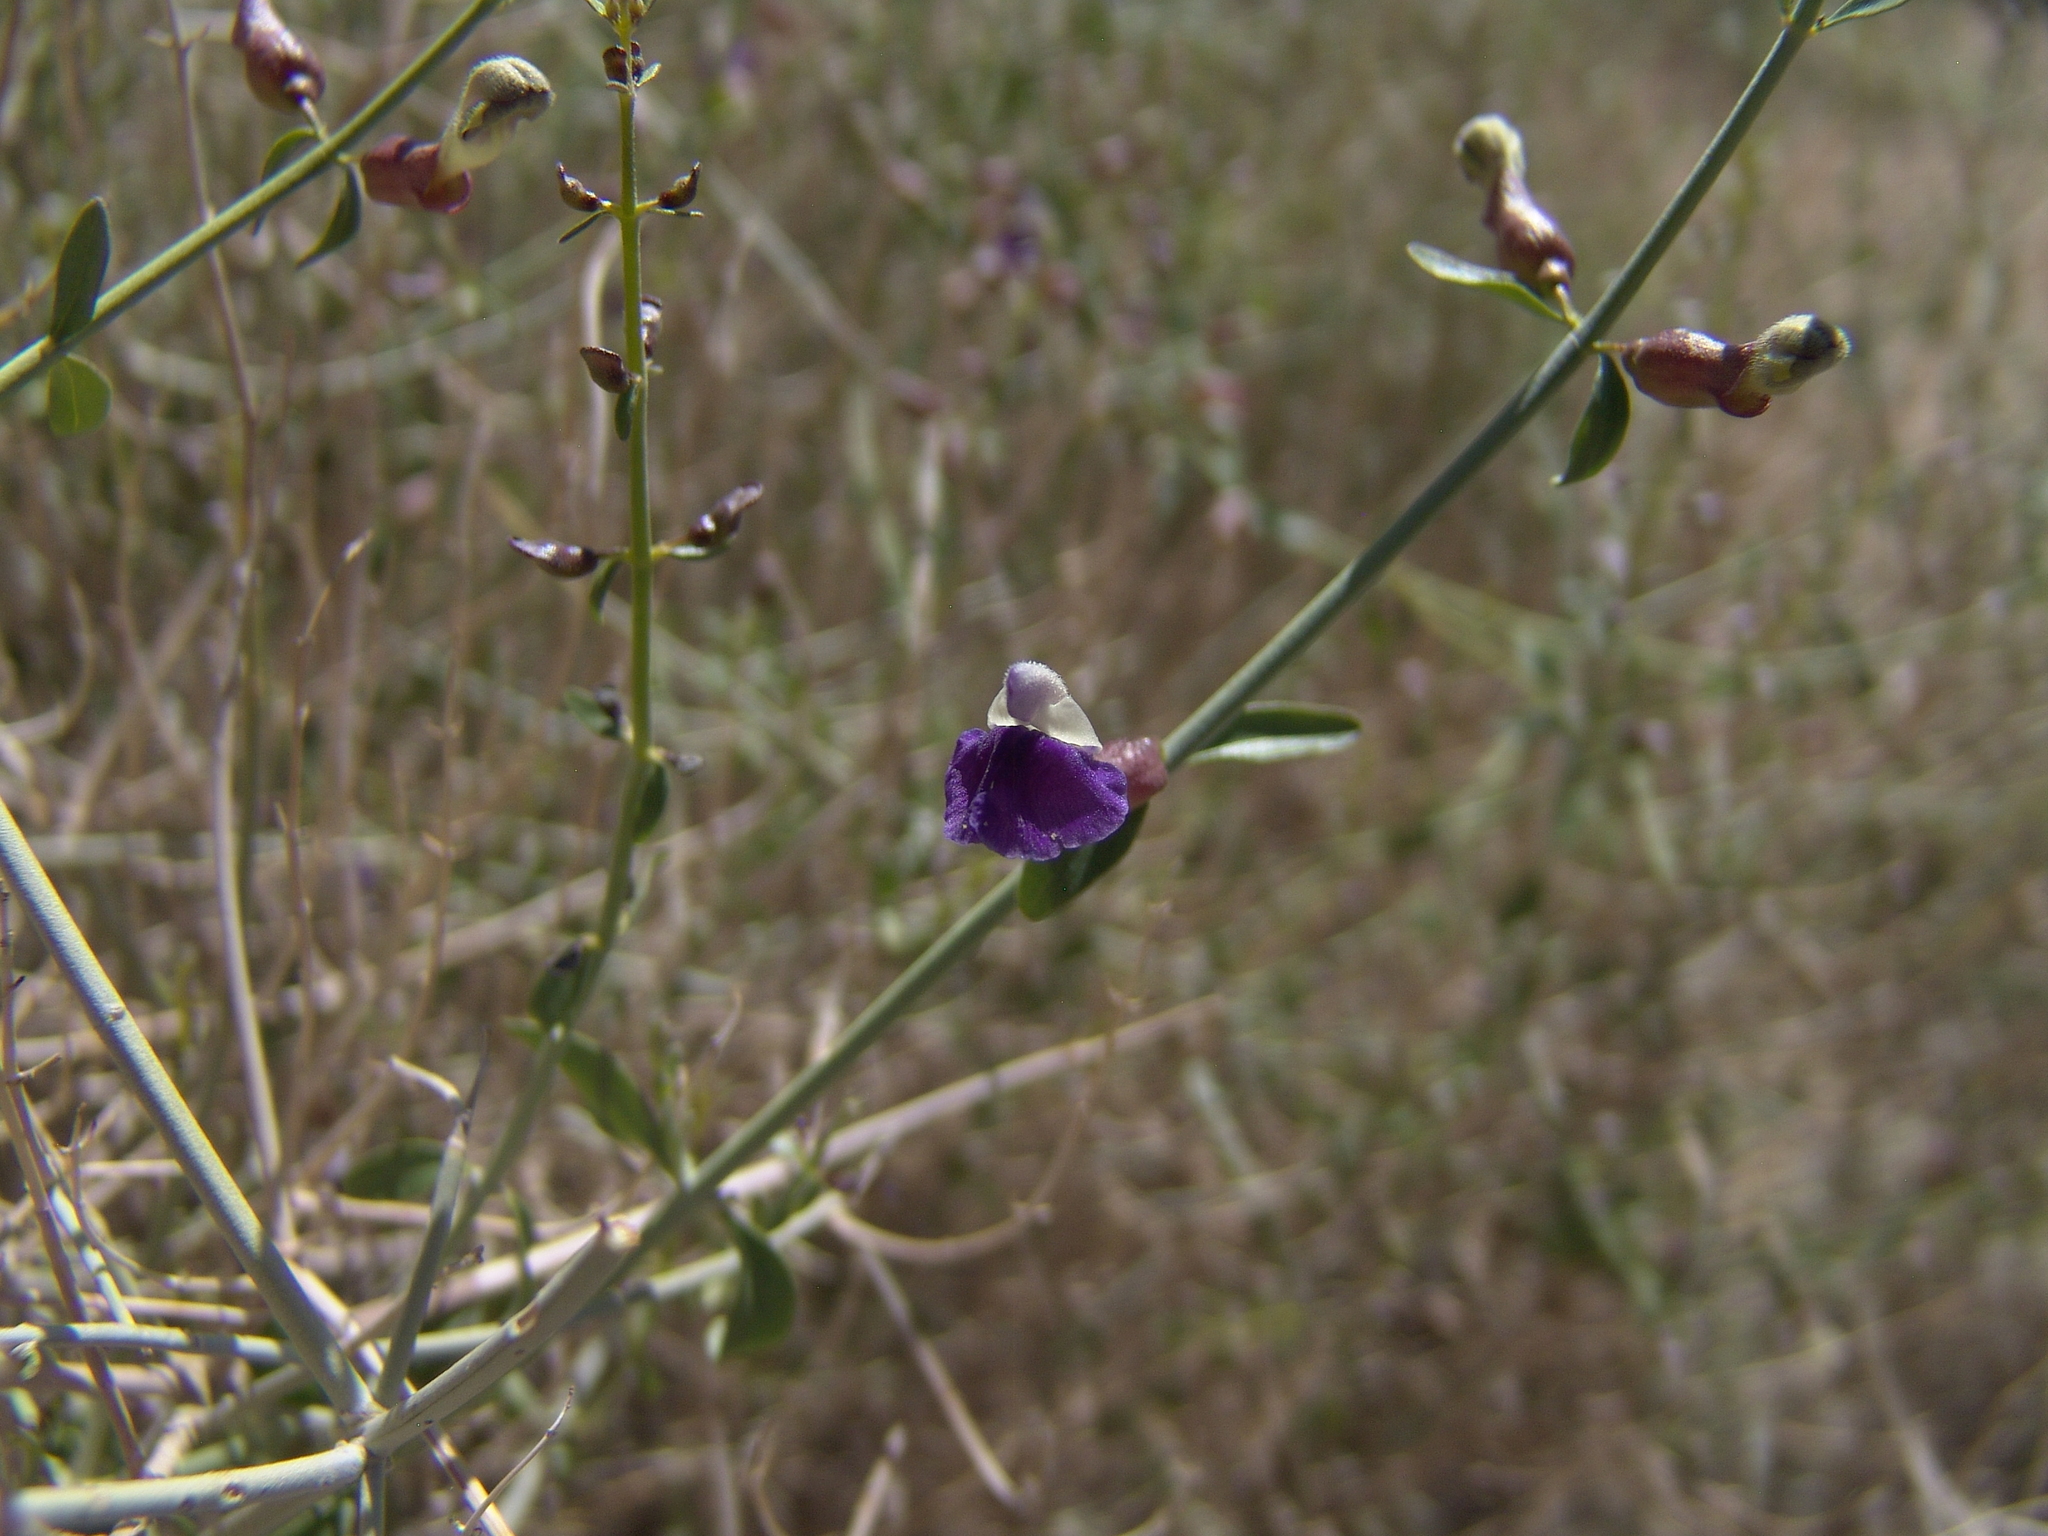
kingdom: Plantae
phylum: Tracheophyta
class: Magnoliopsida
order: Lamiales
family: Lamiaceae
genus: Scutellaria
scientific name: Scutellaria mexicana
